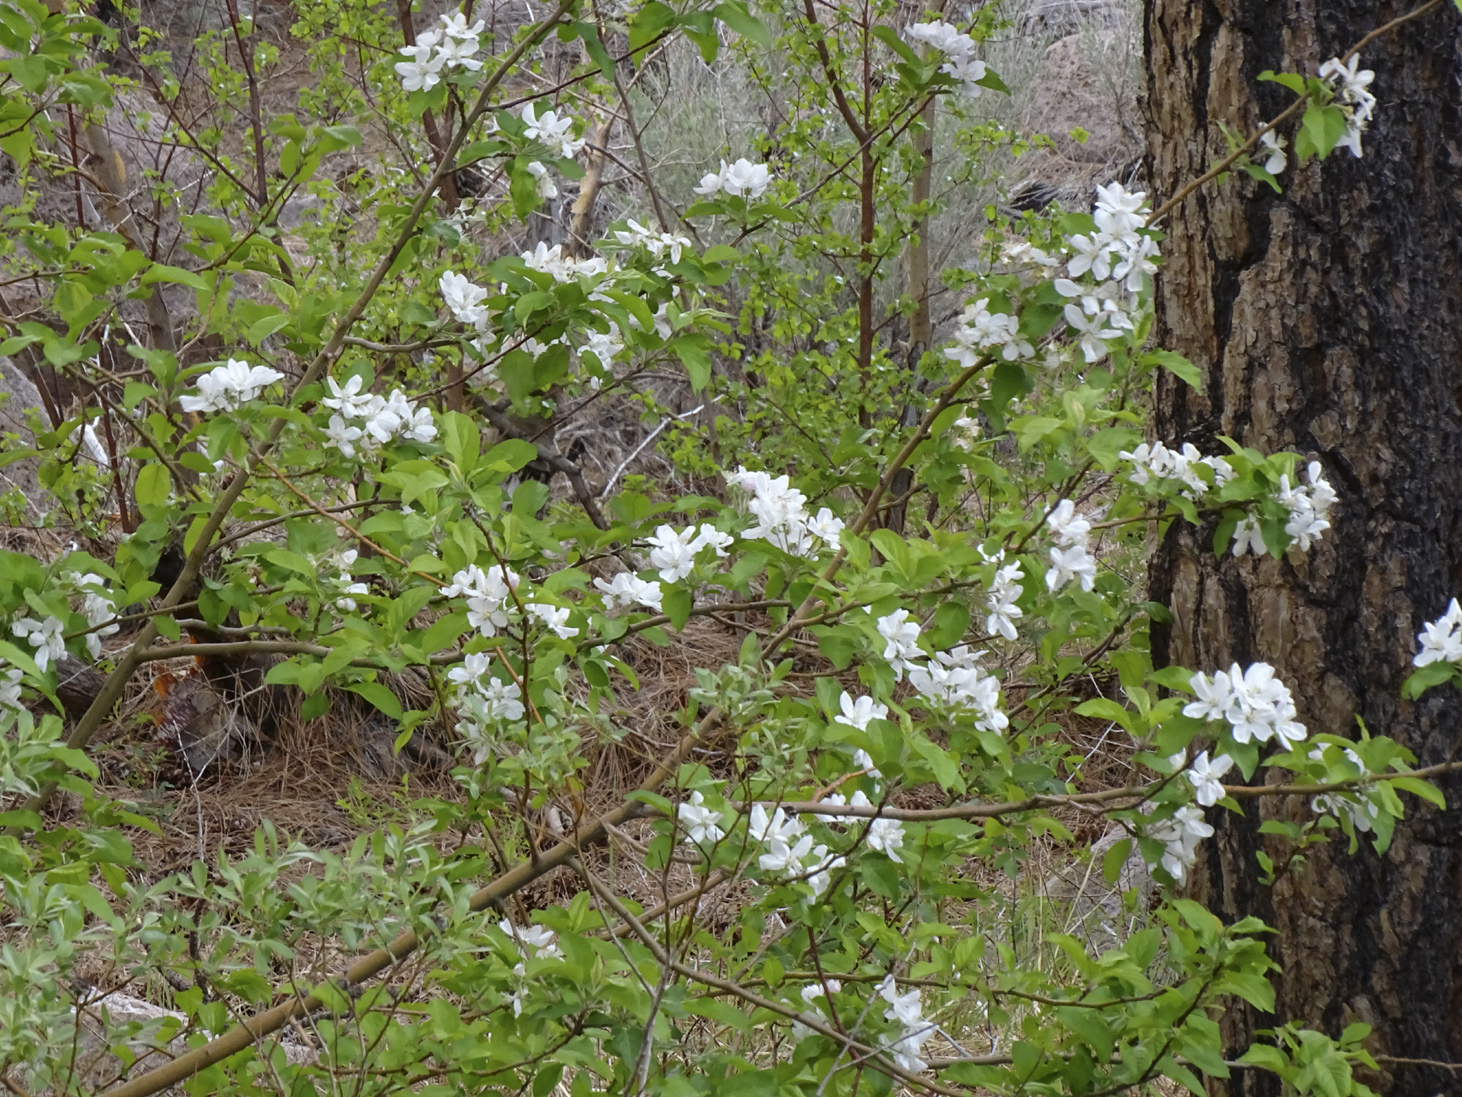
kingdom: Plantae
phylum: Tracheophyta
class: Magnoliopsida
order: Rosales
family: Rosaceae
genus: Amelanchier
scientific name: Amelanchier utahensis
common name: Utah serviceberry
